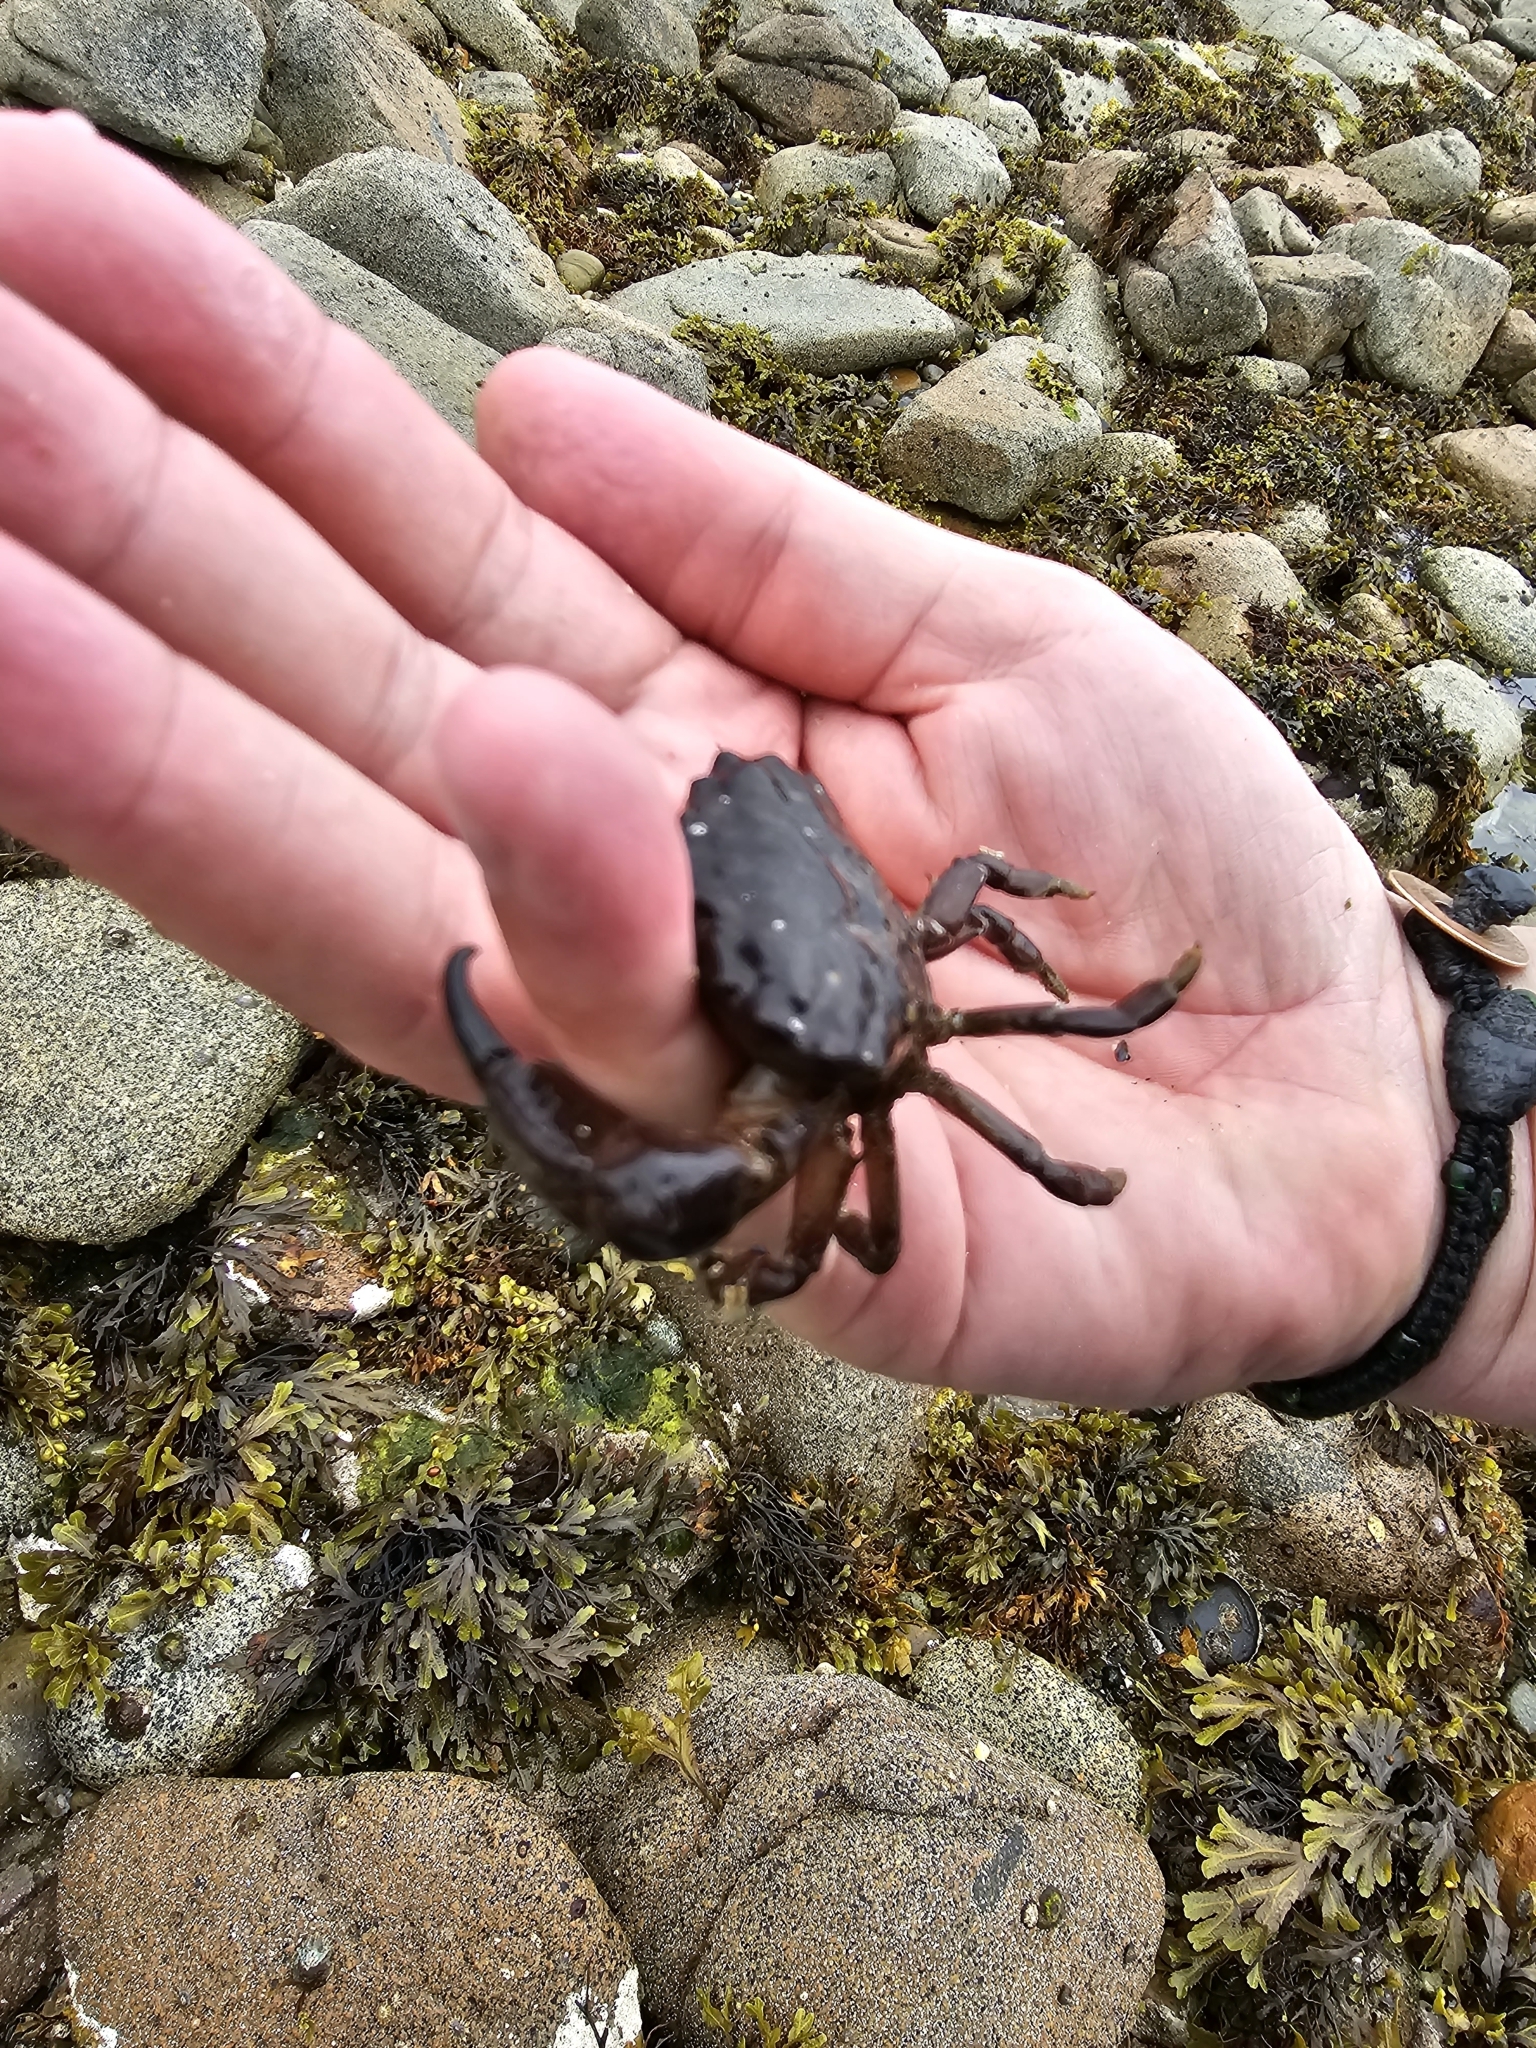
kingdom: Animalia
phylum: Arthropoda
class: Malacostraca
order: Decapoda
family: Xanthidae
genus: Xantho
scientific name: Xantho hydrophilus
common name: Montagu's crab
